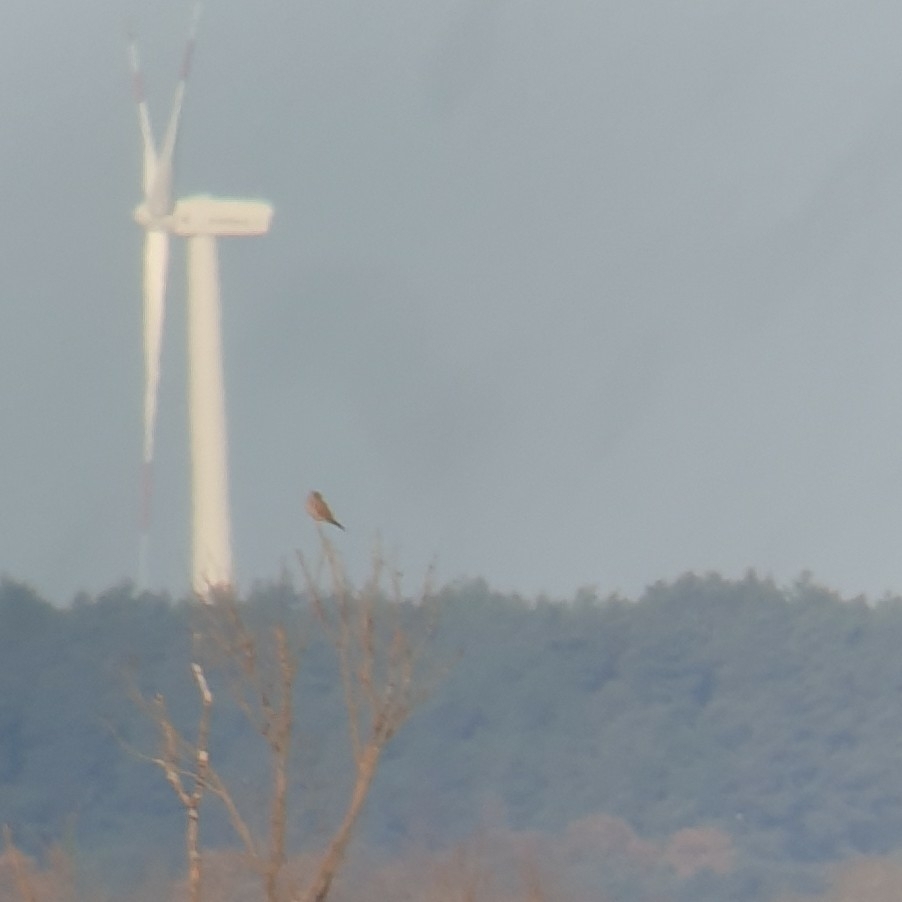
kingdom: Animalia
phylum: Chordata
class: Aves
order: Falconiformes
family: Falconidae
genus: Falco
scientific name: Falco tinnunculus
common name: Common kestrel
